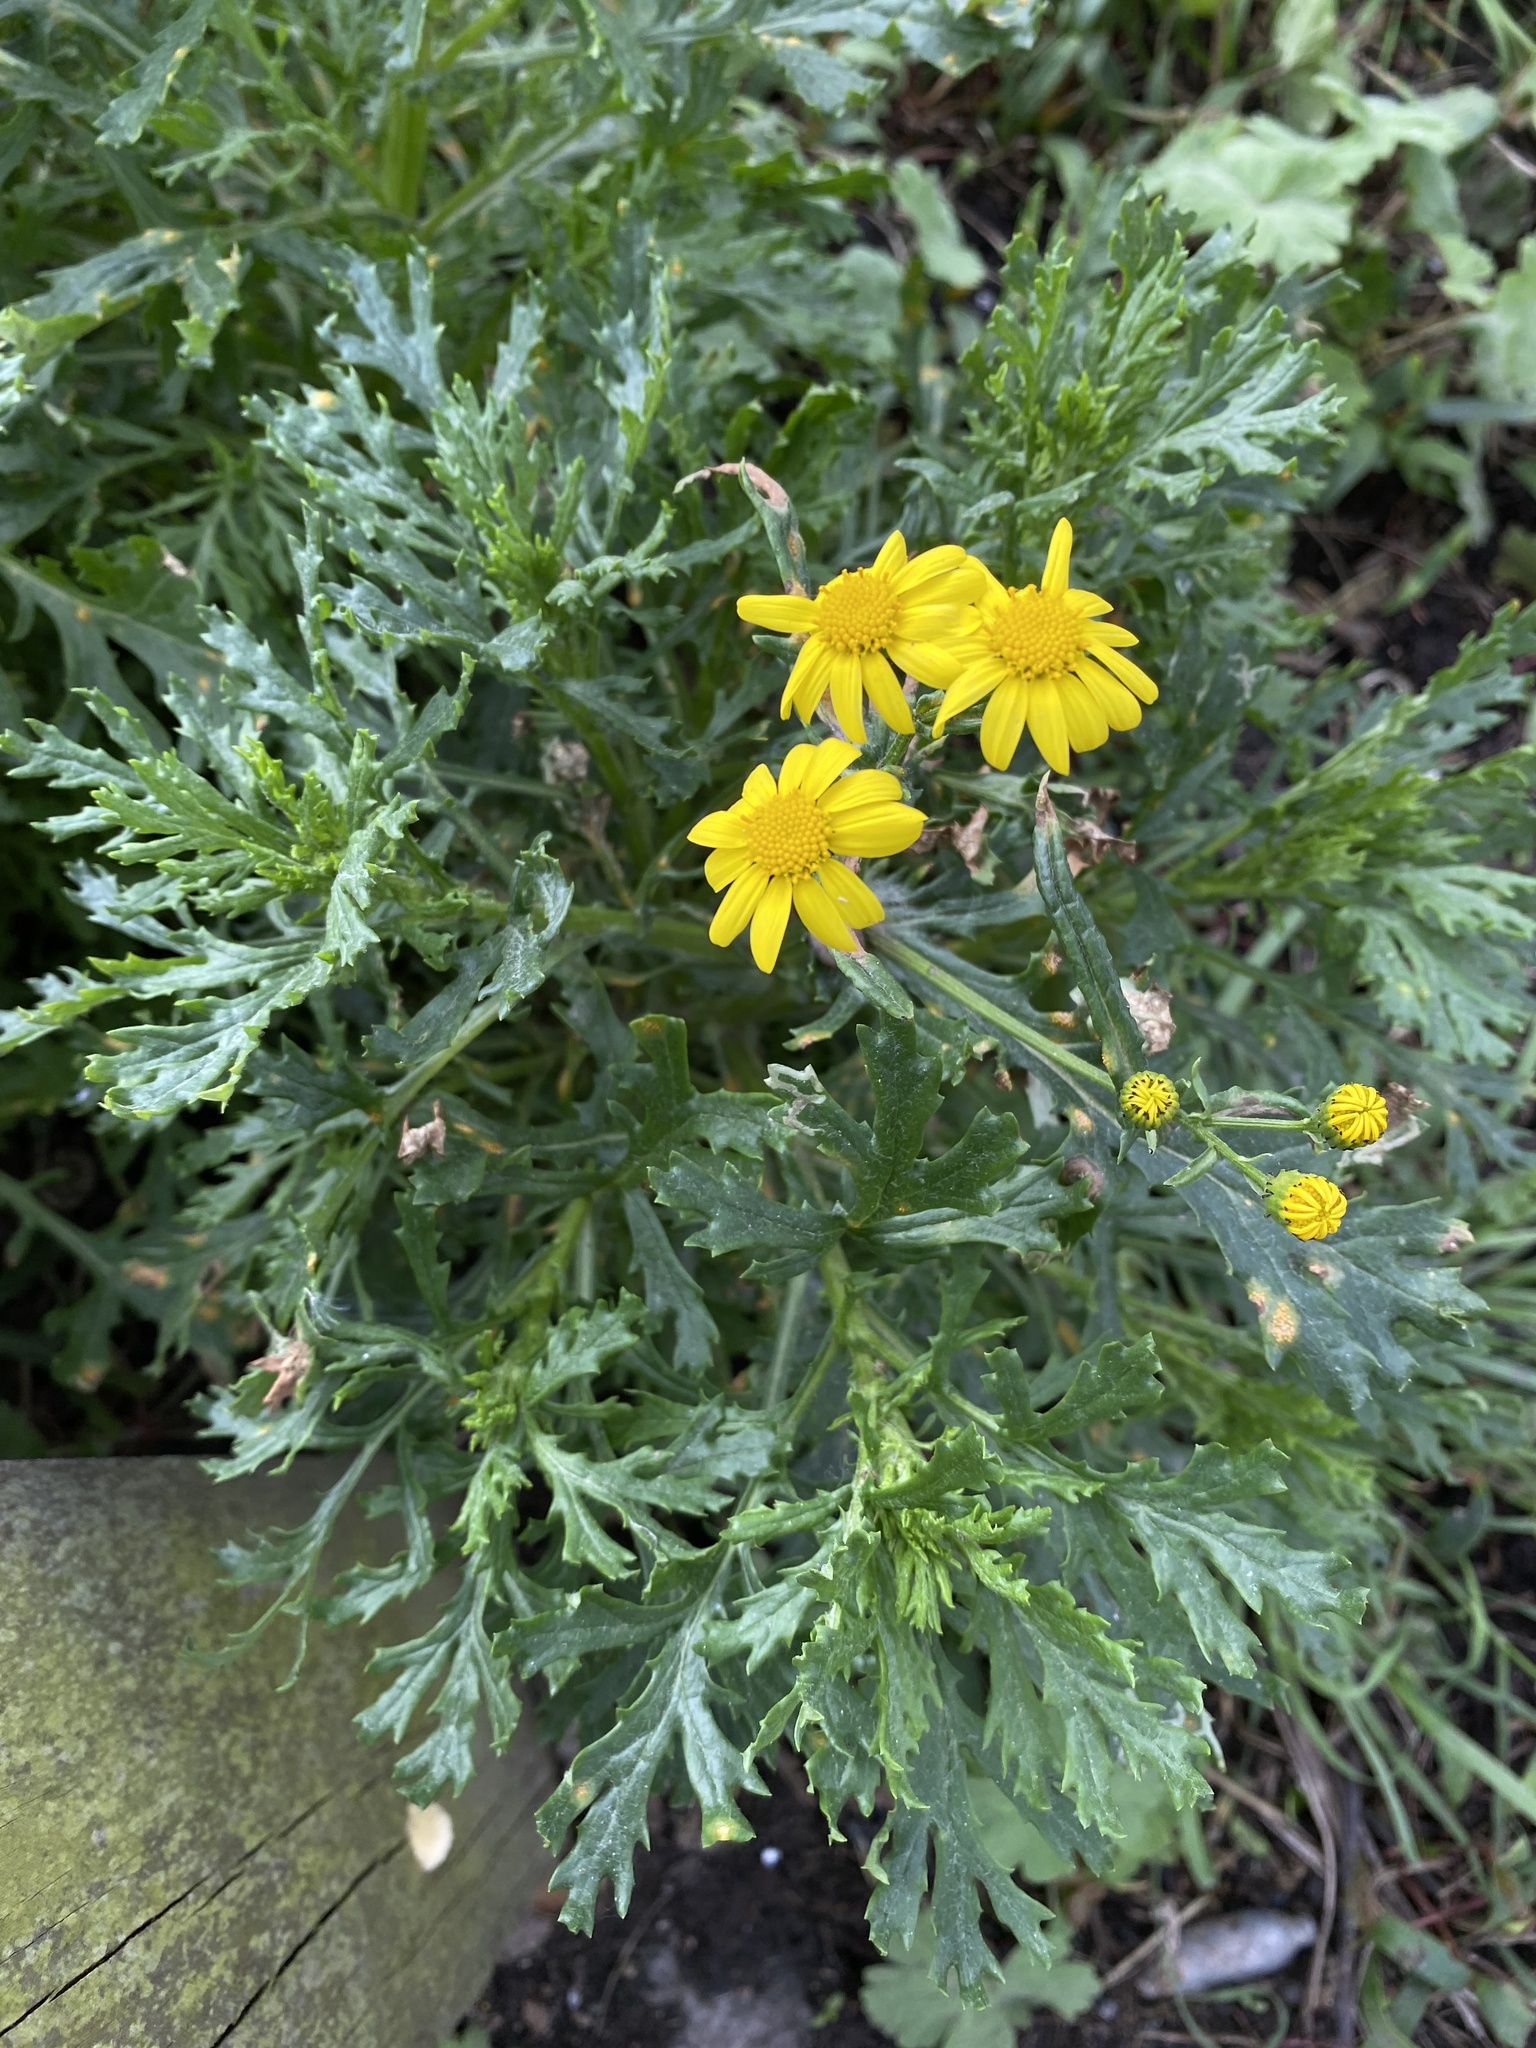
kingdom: Plantae
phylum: Tracheophyta
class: Magnoliopsida
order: Asterales
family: Asteraceae
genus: Senecio
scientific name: Senecio squalidus
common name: Oxford ragwort
